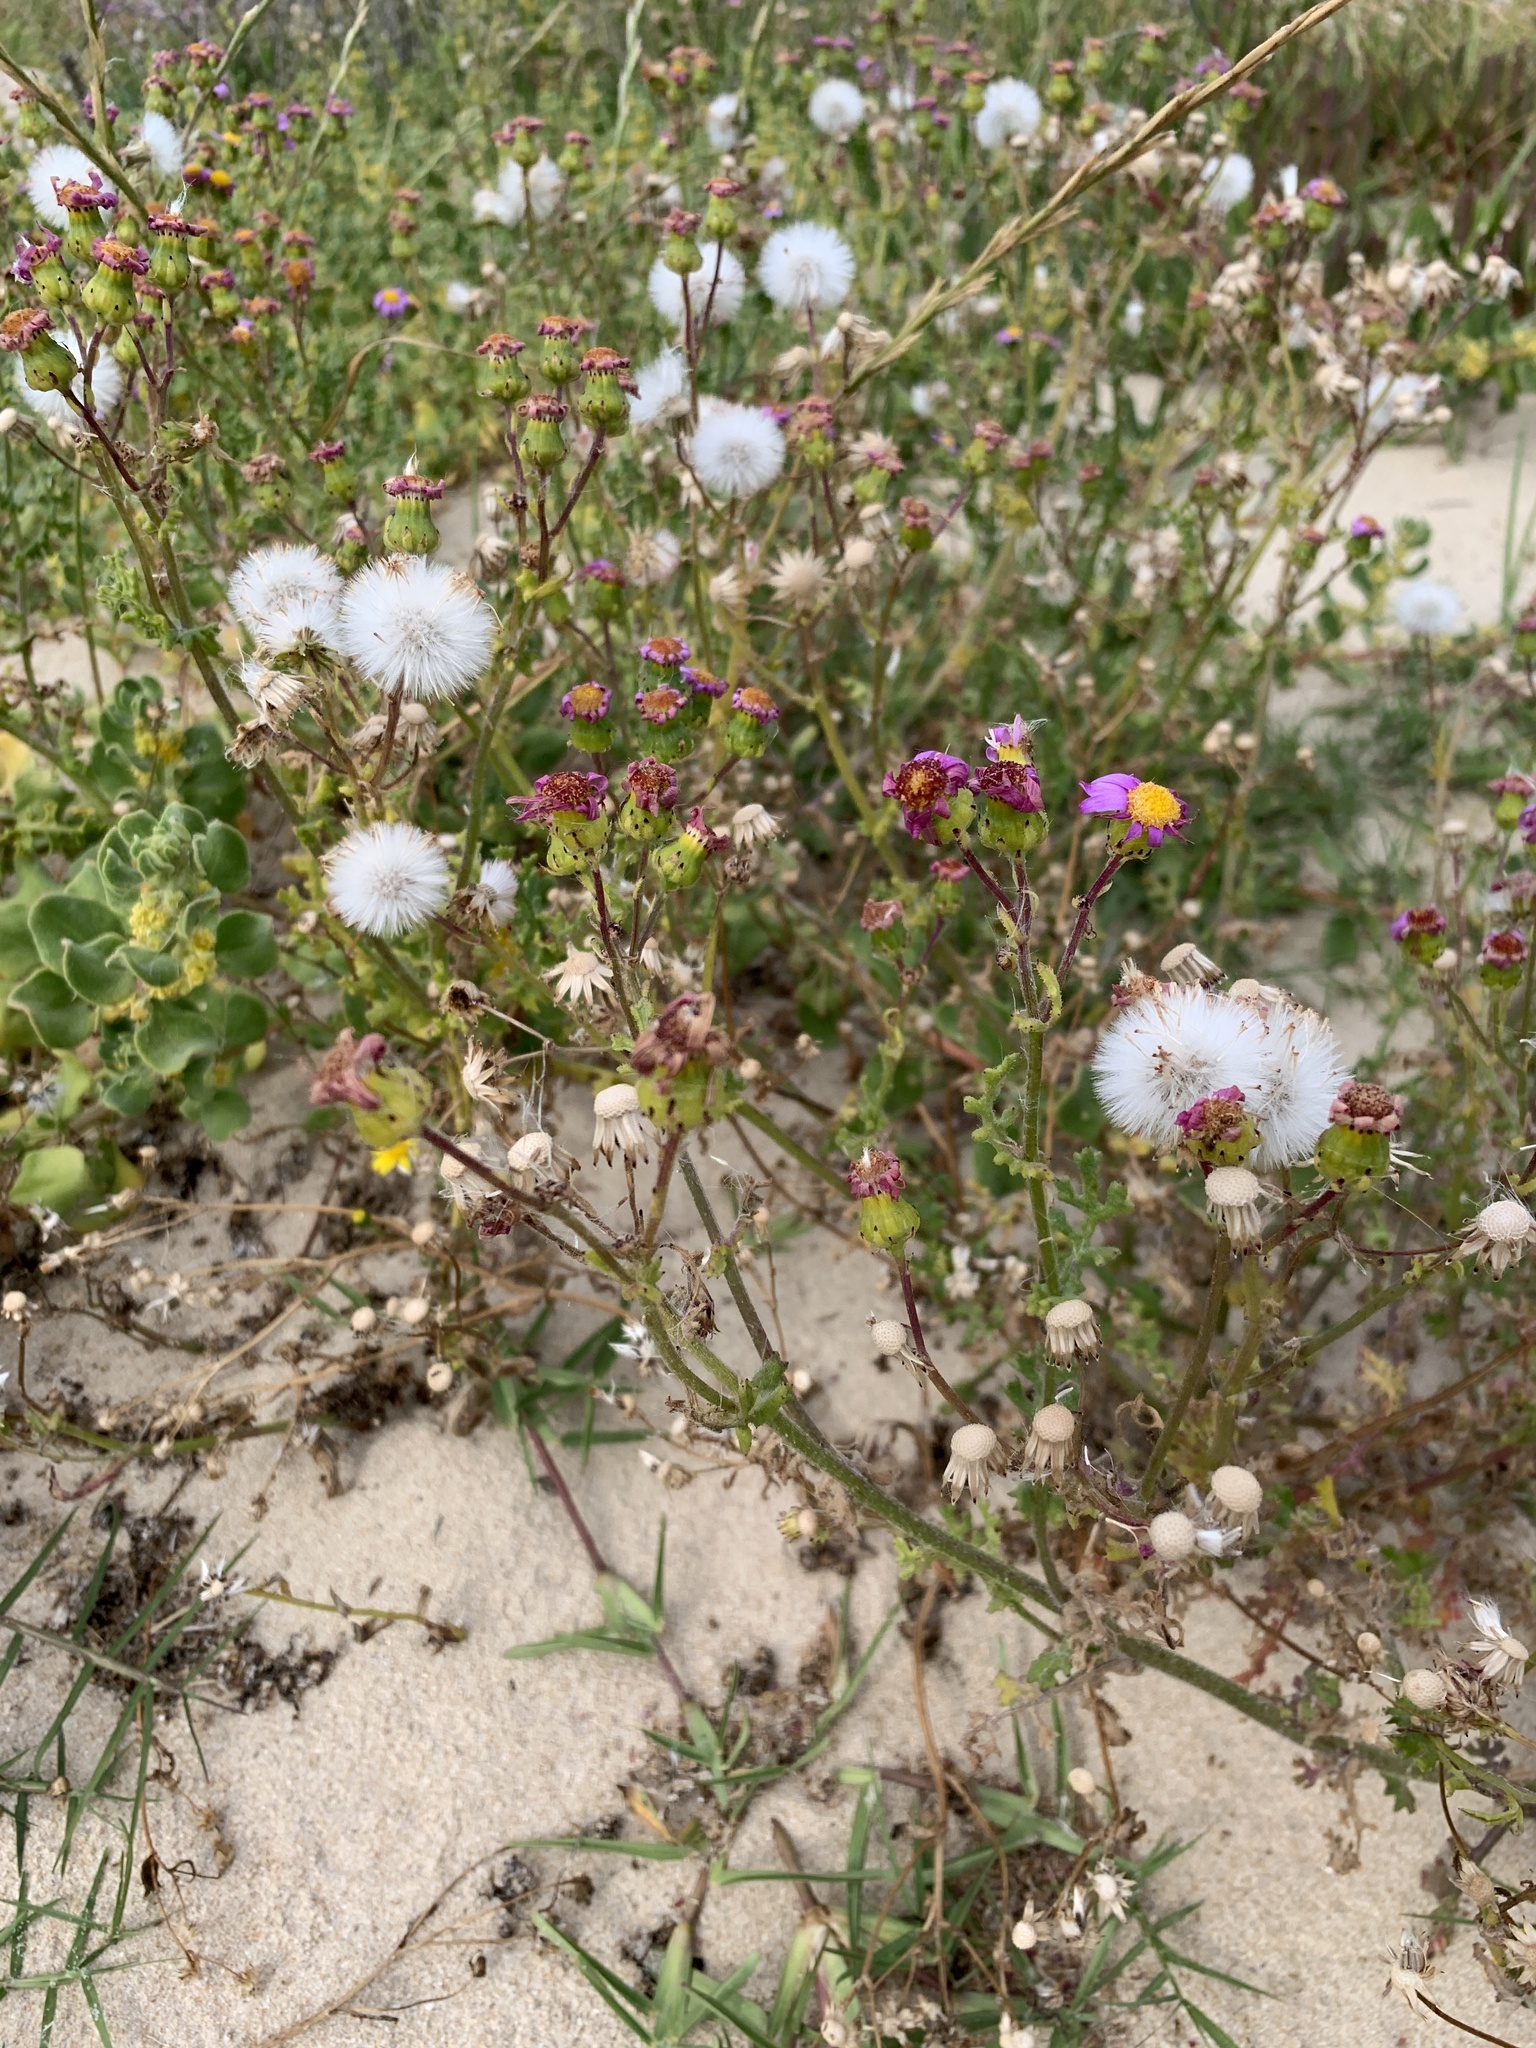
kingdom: Plantae
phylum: Tracheophyta
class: Magnoliopsida
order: Asterales
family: Asteraceae
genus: Senecio
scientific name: Senecio elegans
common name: Purple groundsel
